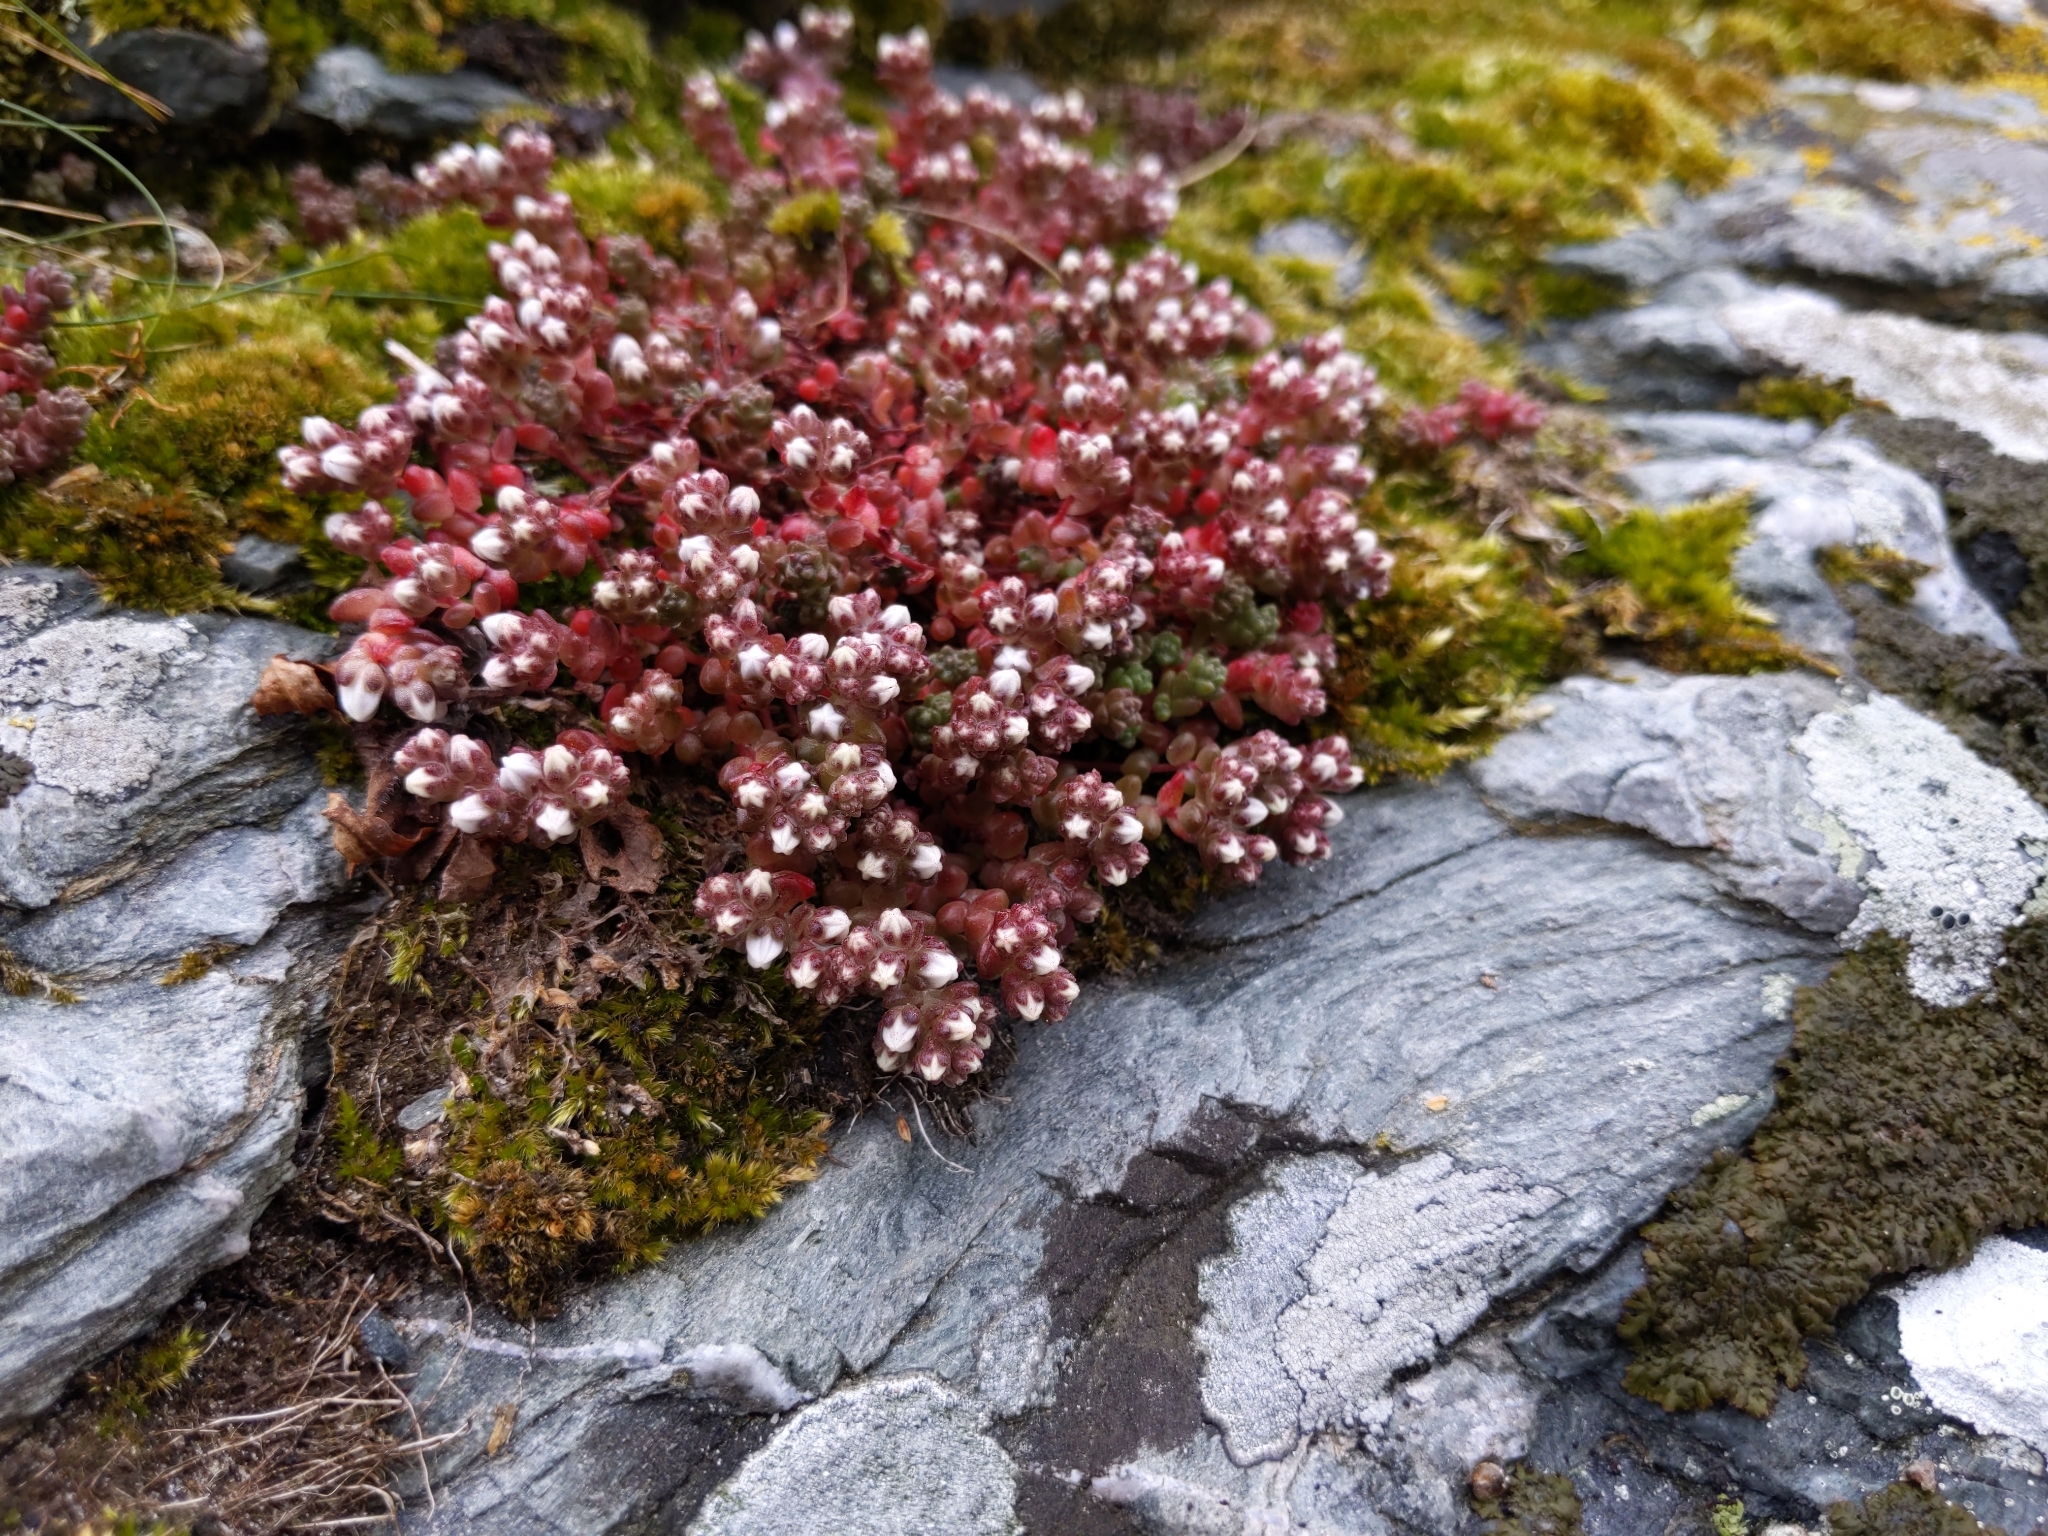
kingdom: Plantae
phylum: Tracheophyta
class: Magnoliopsida
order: Saxifragales
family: Crassulaceae
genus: Sedum
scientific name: Sedum anglicum
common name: English stonecrop
